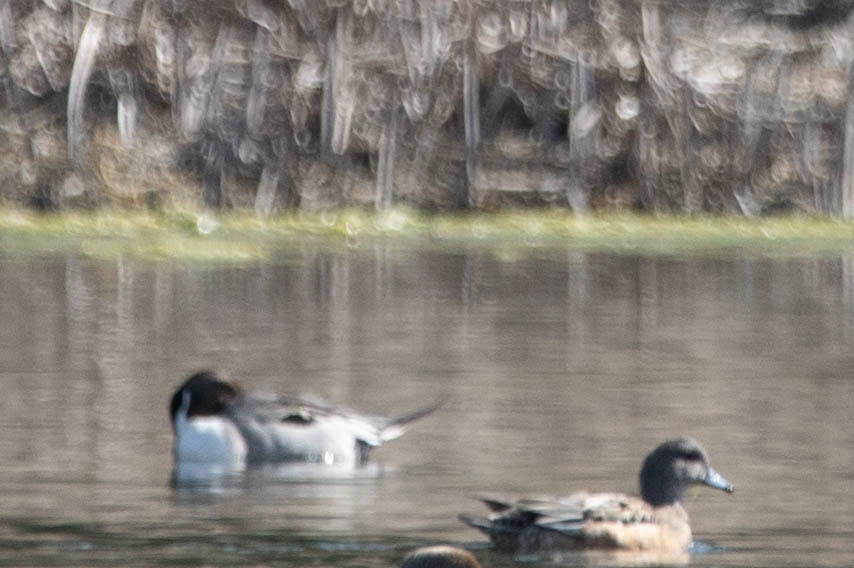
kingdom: Animalia
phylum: Chordata
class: Aves
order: Anseriformes
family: Anatidae
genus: Anas
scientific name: Anas acuta
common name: Northern pintail
